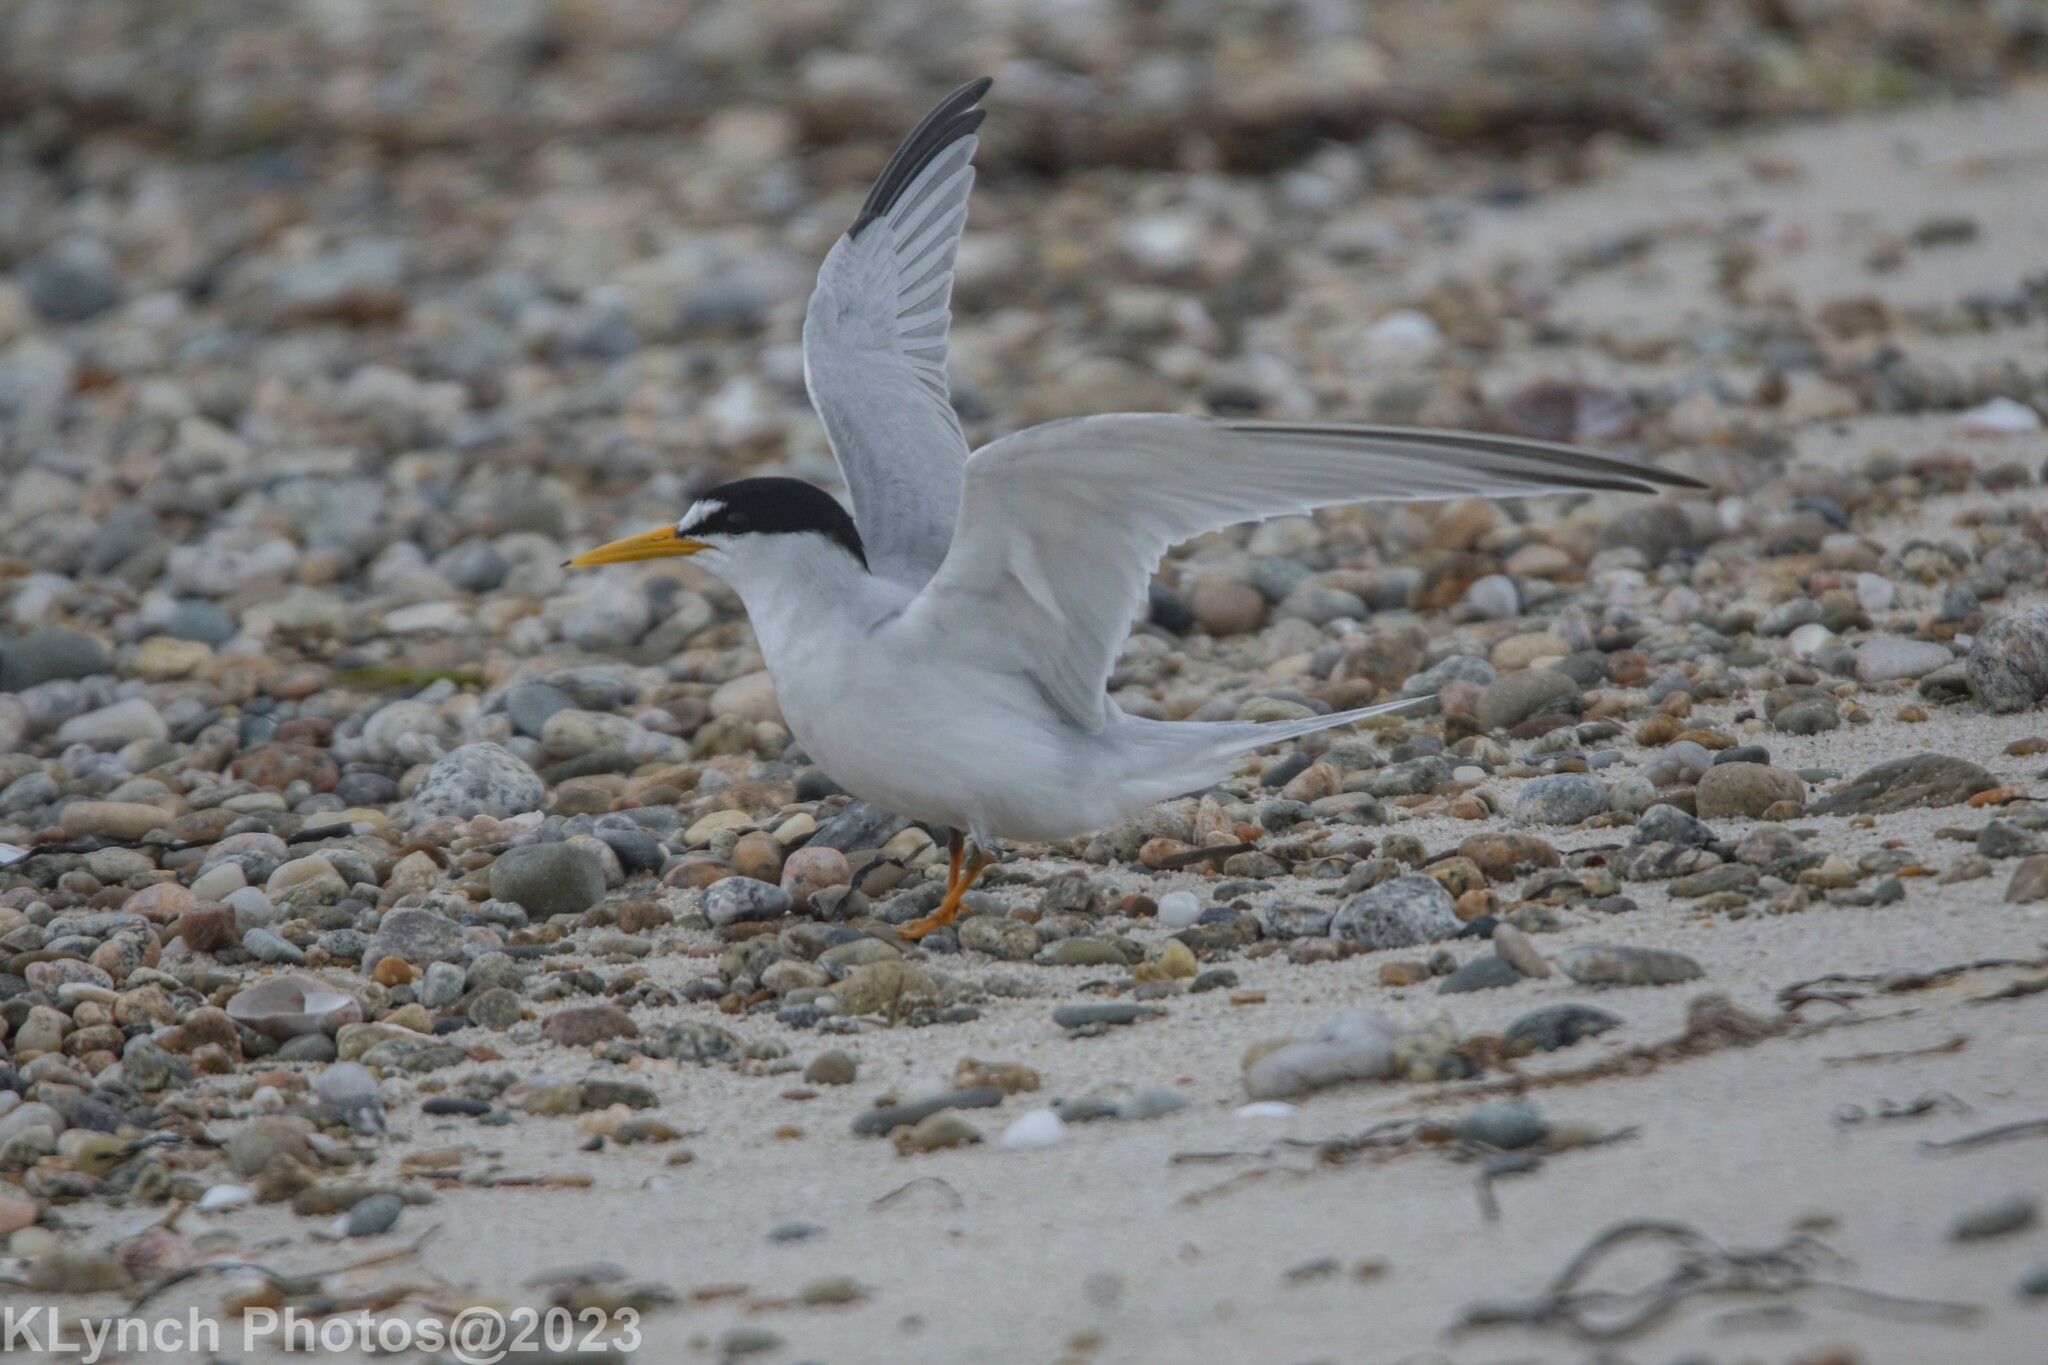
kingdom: Animalia
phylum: Chordata
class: Aves
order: Charadriiformes
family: Laridae
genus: Sternula
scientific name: Sternula antillarum
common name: Least tern
